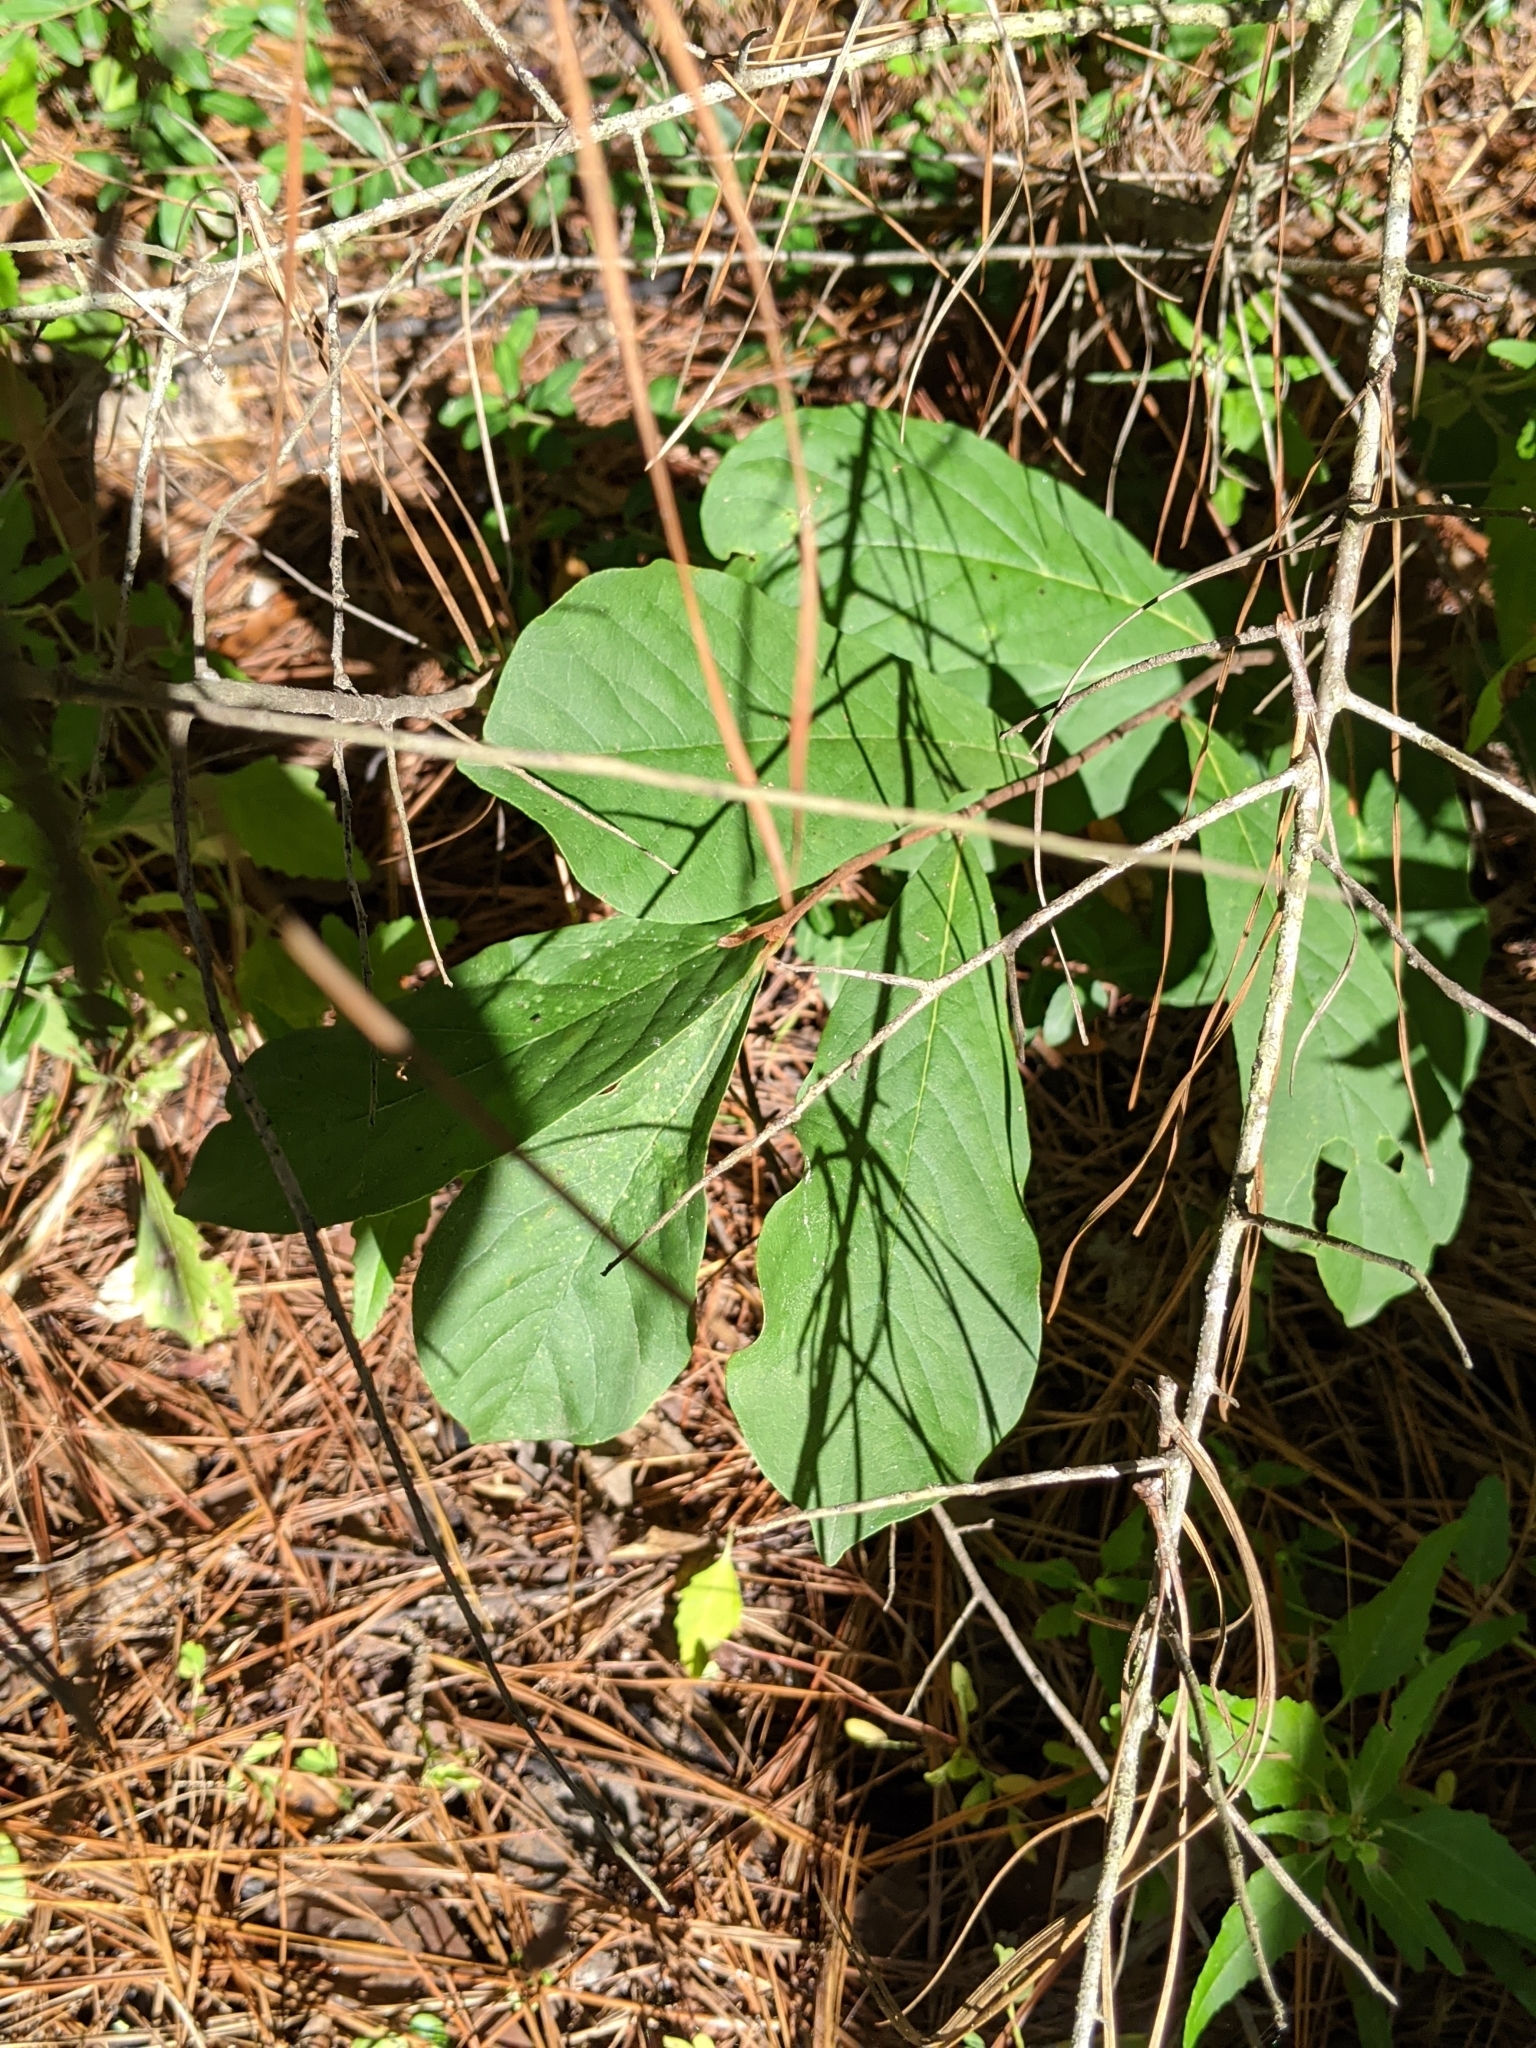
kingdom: Plantae
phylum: Tracheophyta
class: Magnoliopsida
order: Magnoliales
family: Annonaceae
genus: Asimina
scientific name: Asimina parviflora
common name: Dwarf pawpaw
